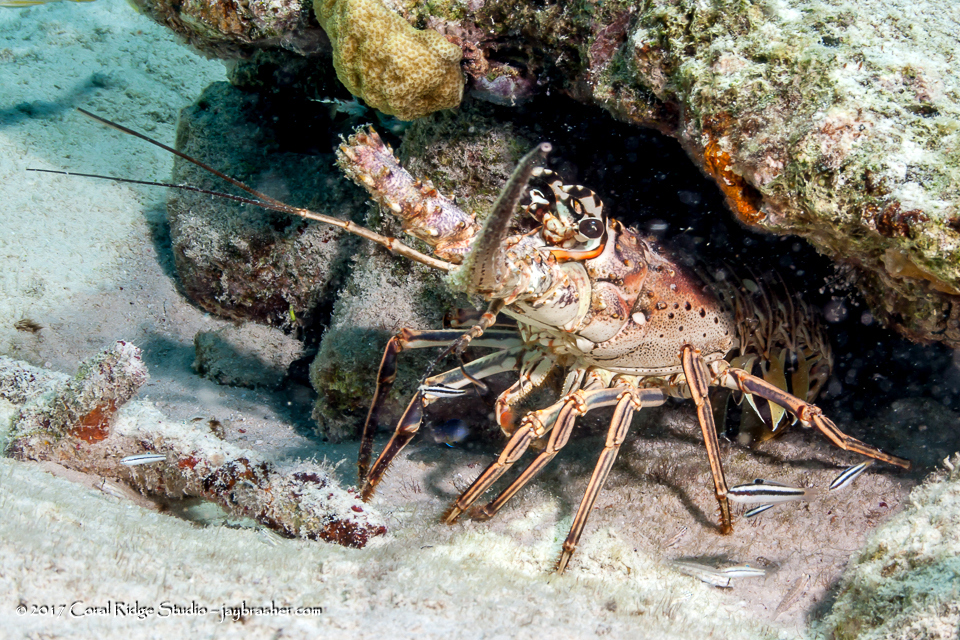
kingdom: Animalia
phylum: Arthropoda
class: Malacostraca
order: Decapoda
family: Palinuridae
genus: Panulirus
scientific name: Panulirus argus
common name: Caribbean spiny lobster
